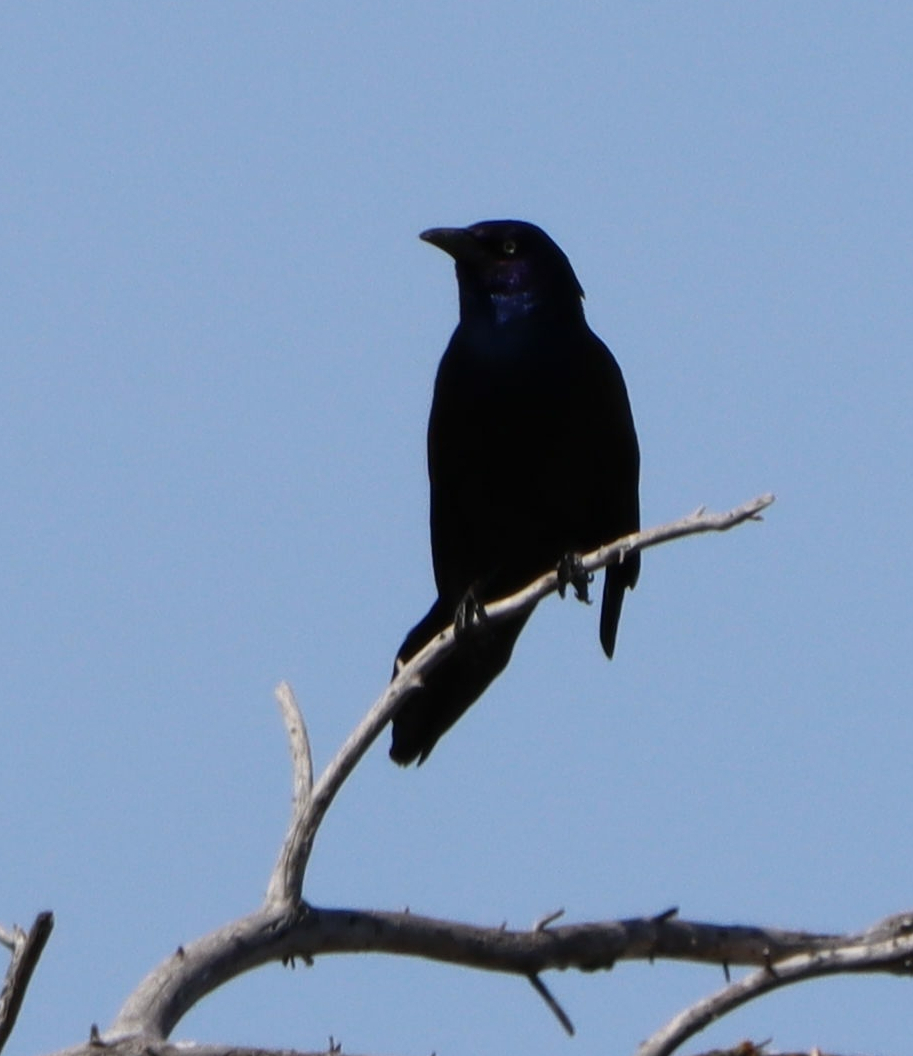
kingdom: Animalia
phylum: Chordata
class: Aves
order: Passeriformes
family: Icteridae
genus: Quiscalus
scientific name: Quiscalus quiscula
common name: Common grackle
